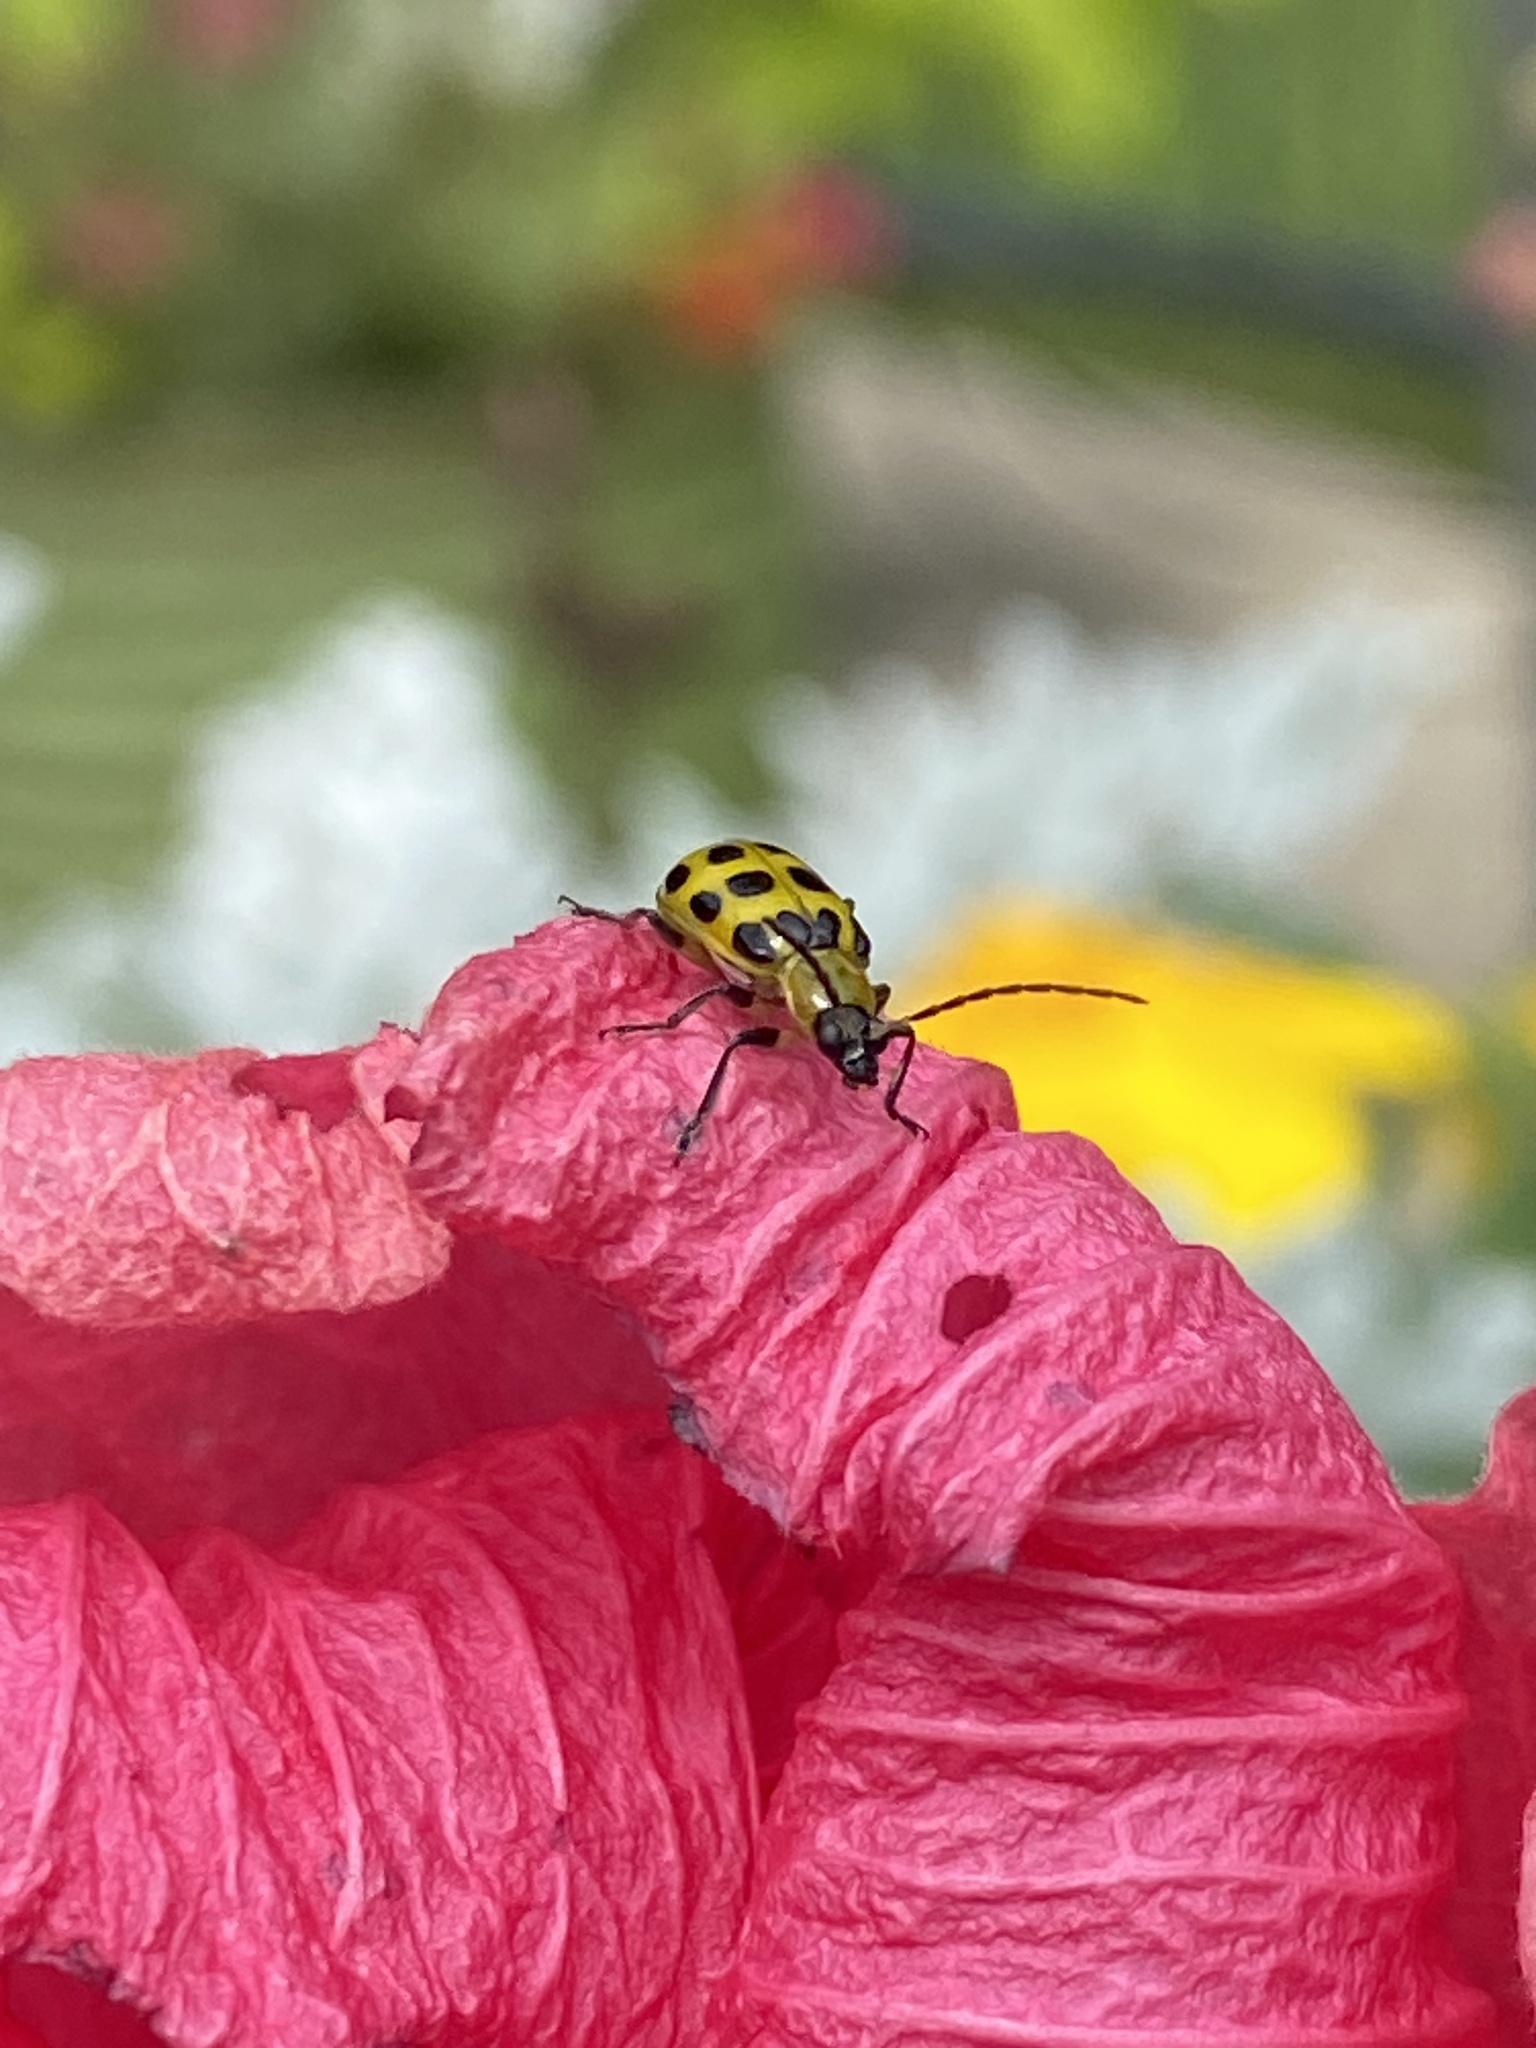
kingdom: Animalia
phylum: Arthropoda
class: Insecta
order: Coleoptera
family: Chrysomelidae
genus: Diabrotica
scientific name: Diabrotica undecimpunctata
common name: Spotted cucumber beetle
